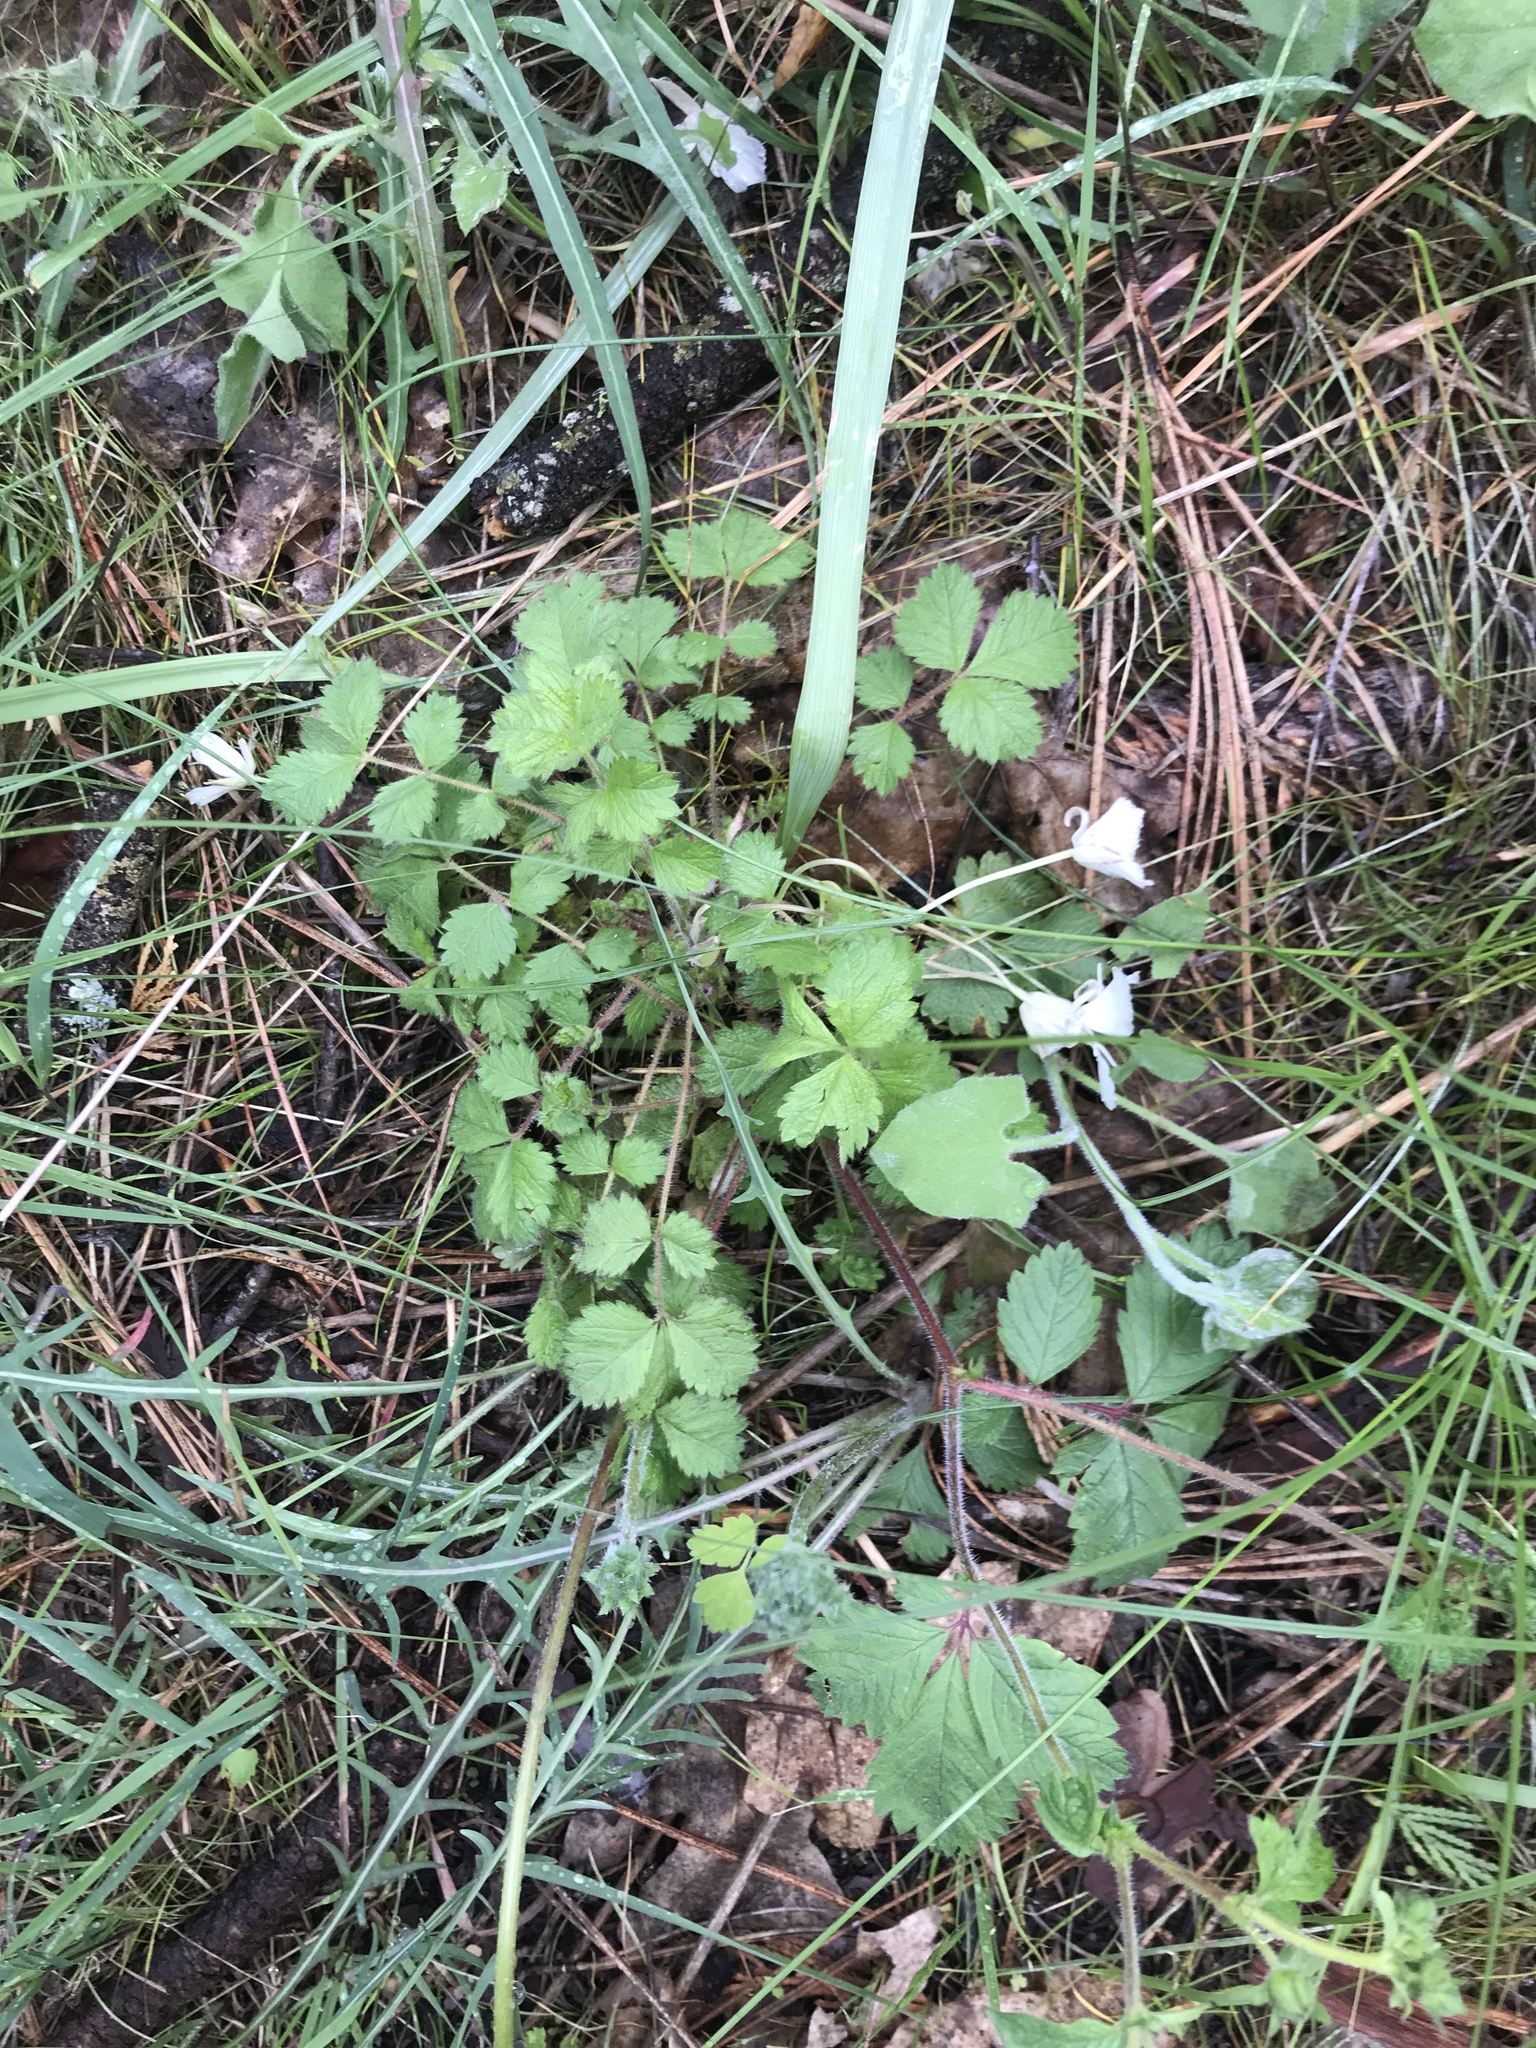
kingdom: Plantae
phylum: Tracheophyta
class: Liliopsida
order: Liliales
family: Liliaceae
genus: Calochortus
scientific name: Calochortus minimus
